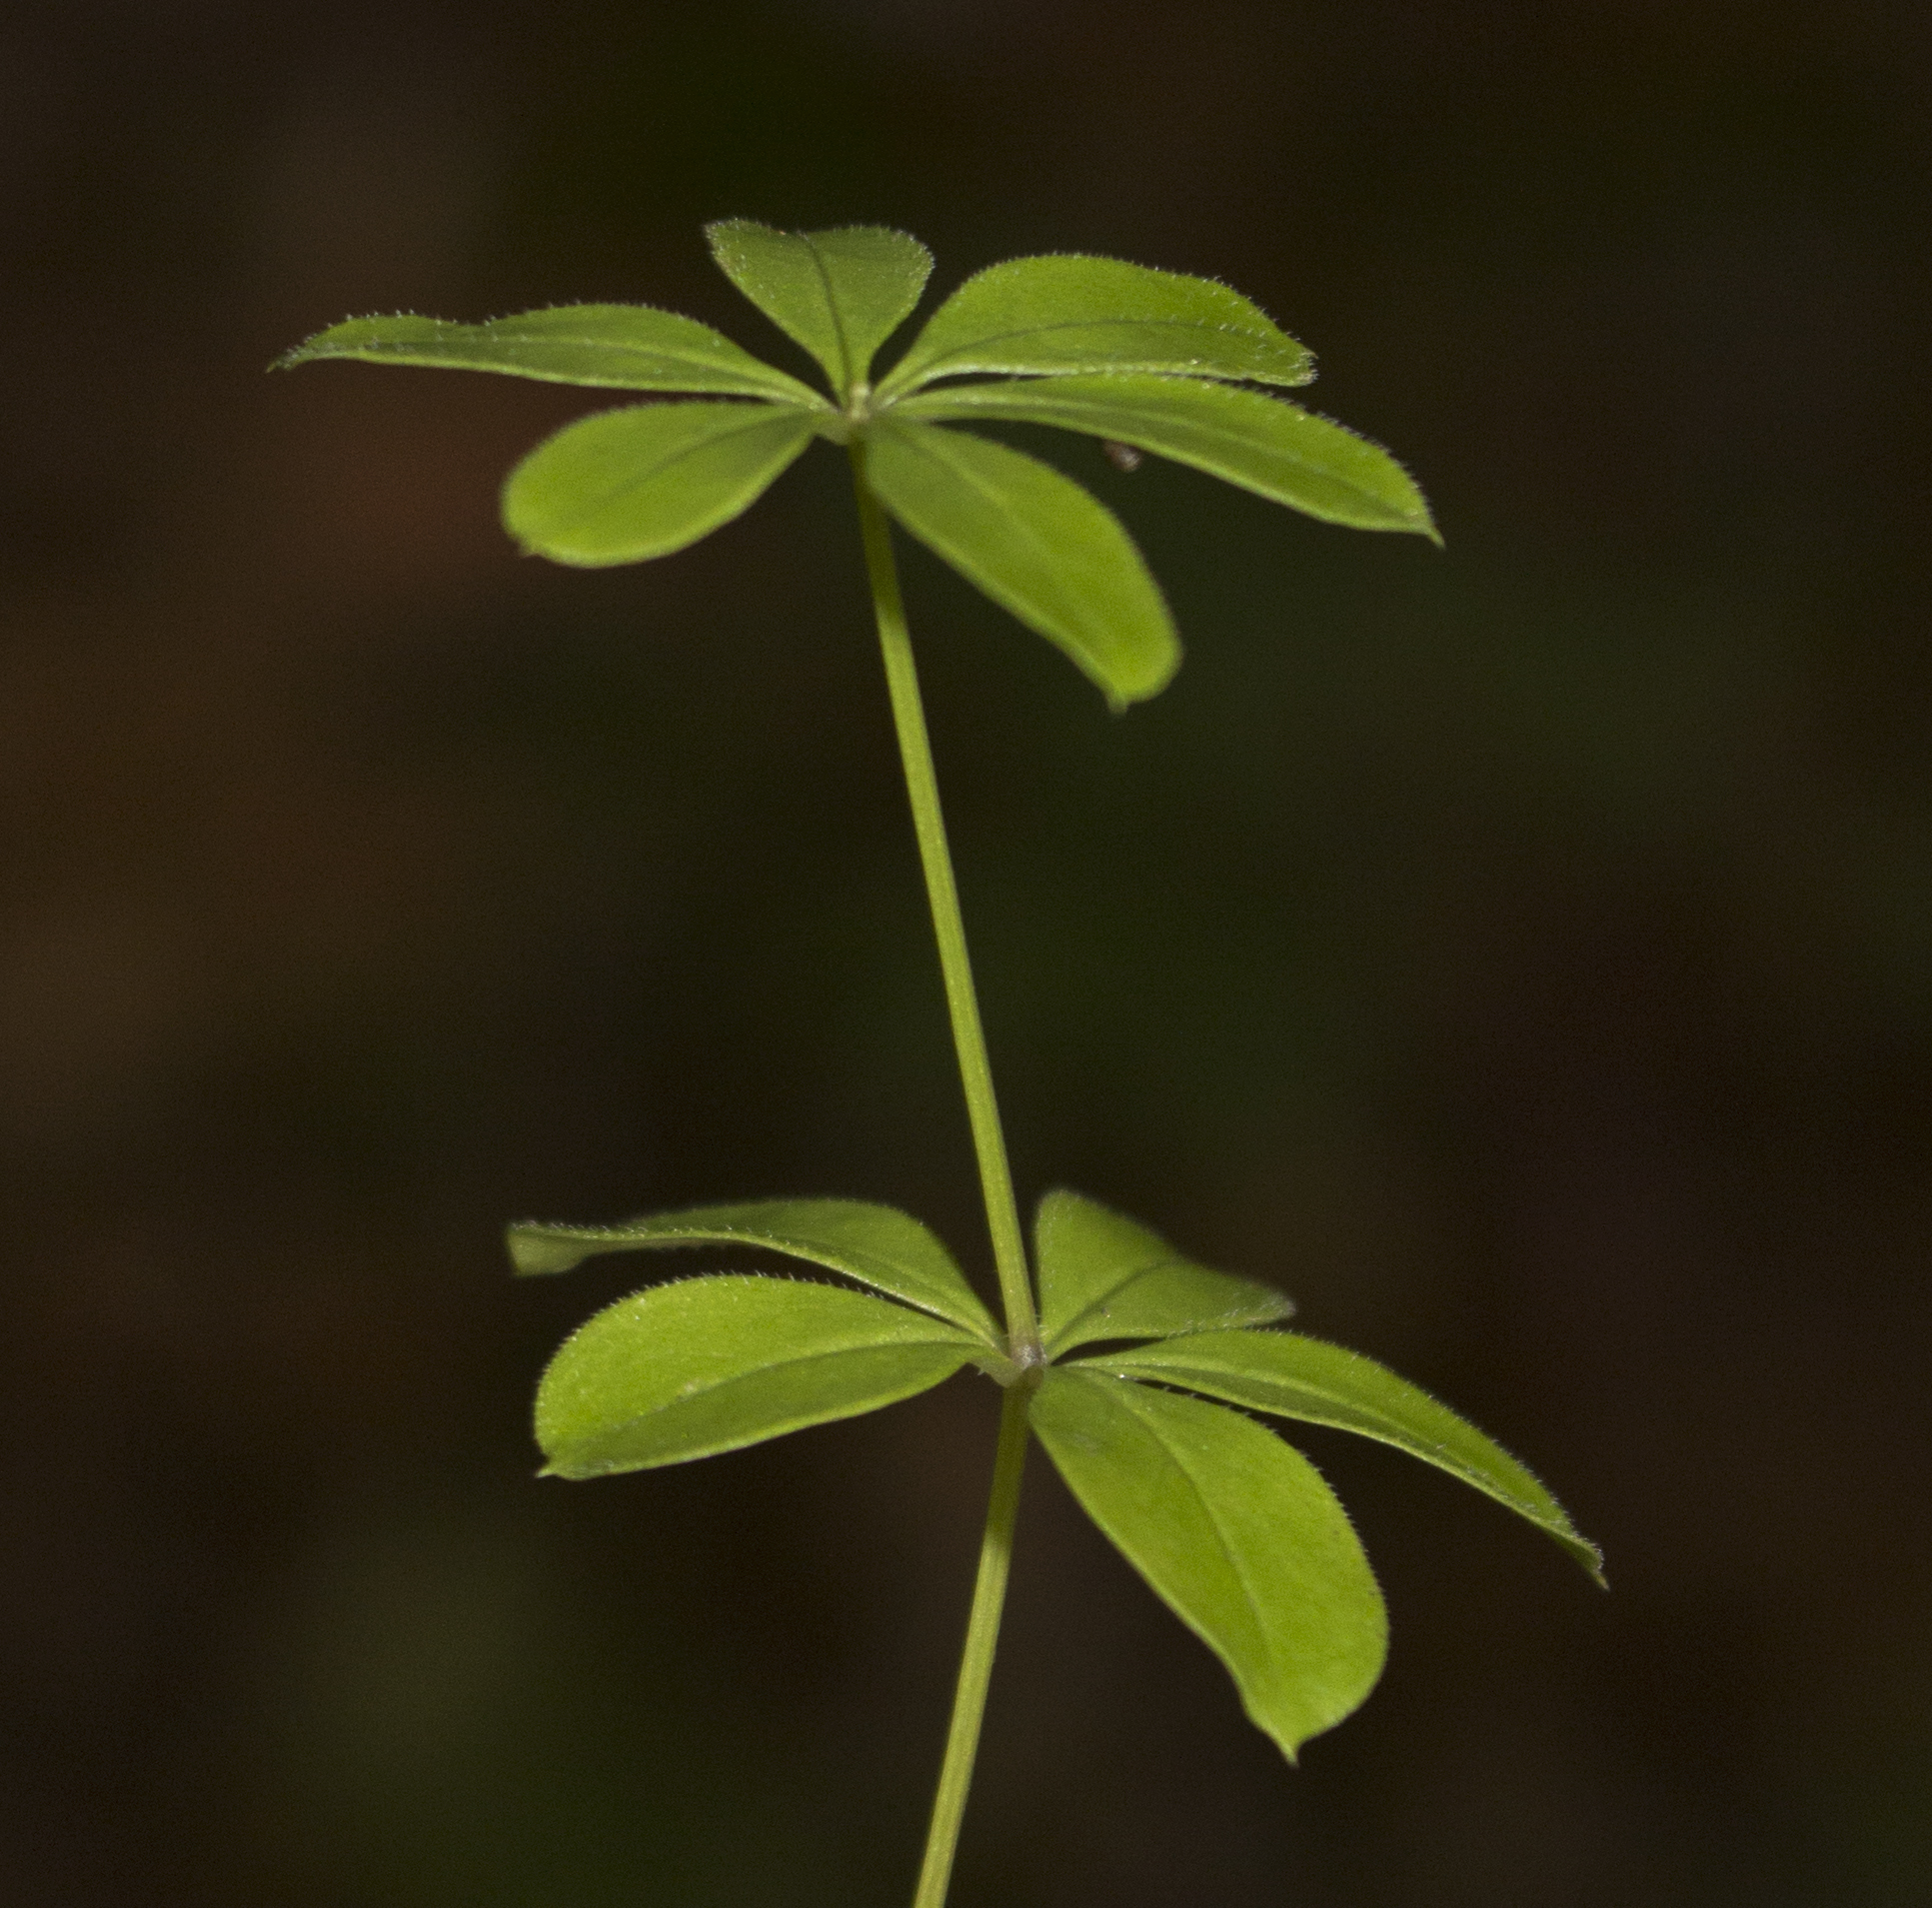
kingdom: Plantae
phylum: Tracheophyta
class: Magnoliopsida
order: Gentianales
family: Rubiaceae
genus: Galium
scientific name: Galium triflorum
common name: Fragrant bedstraw
